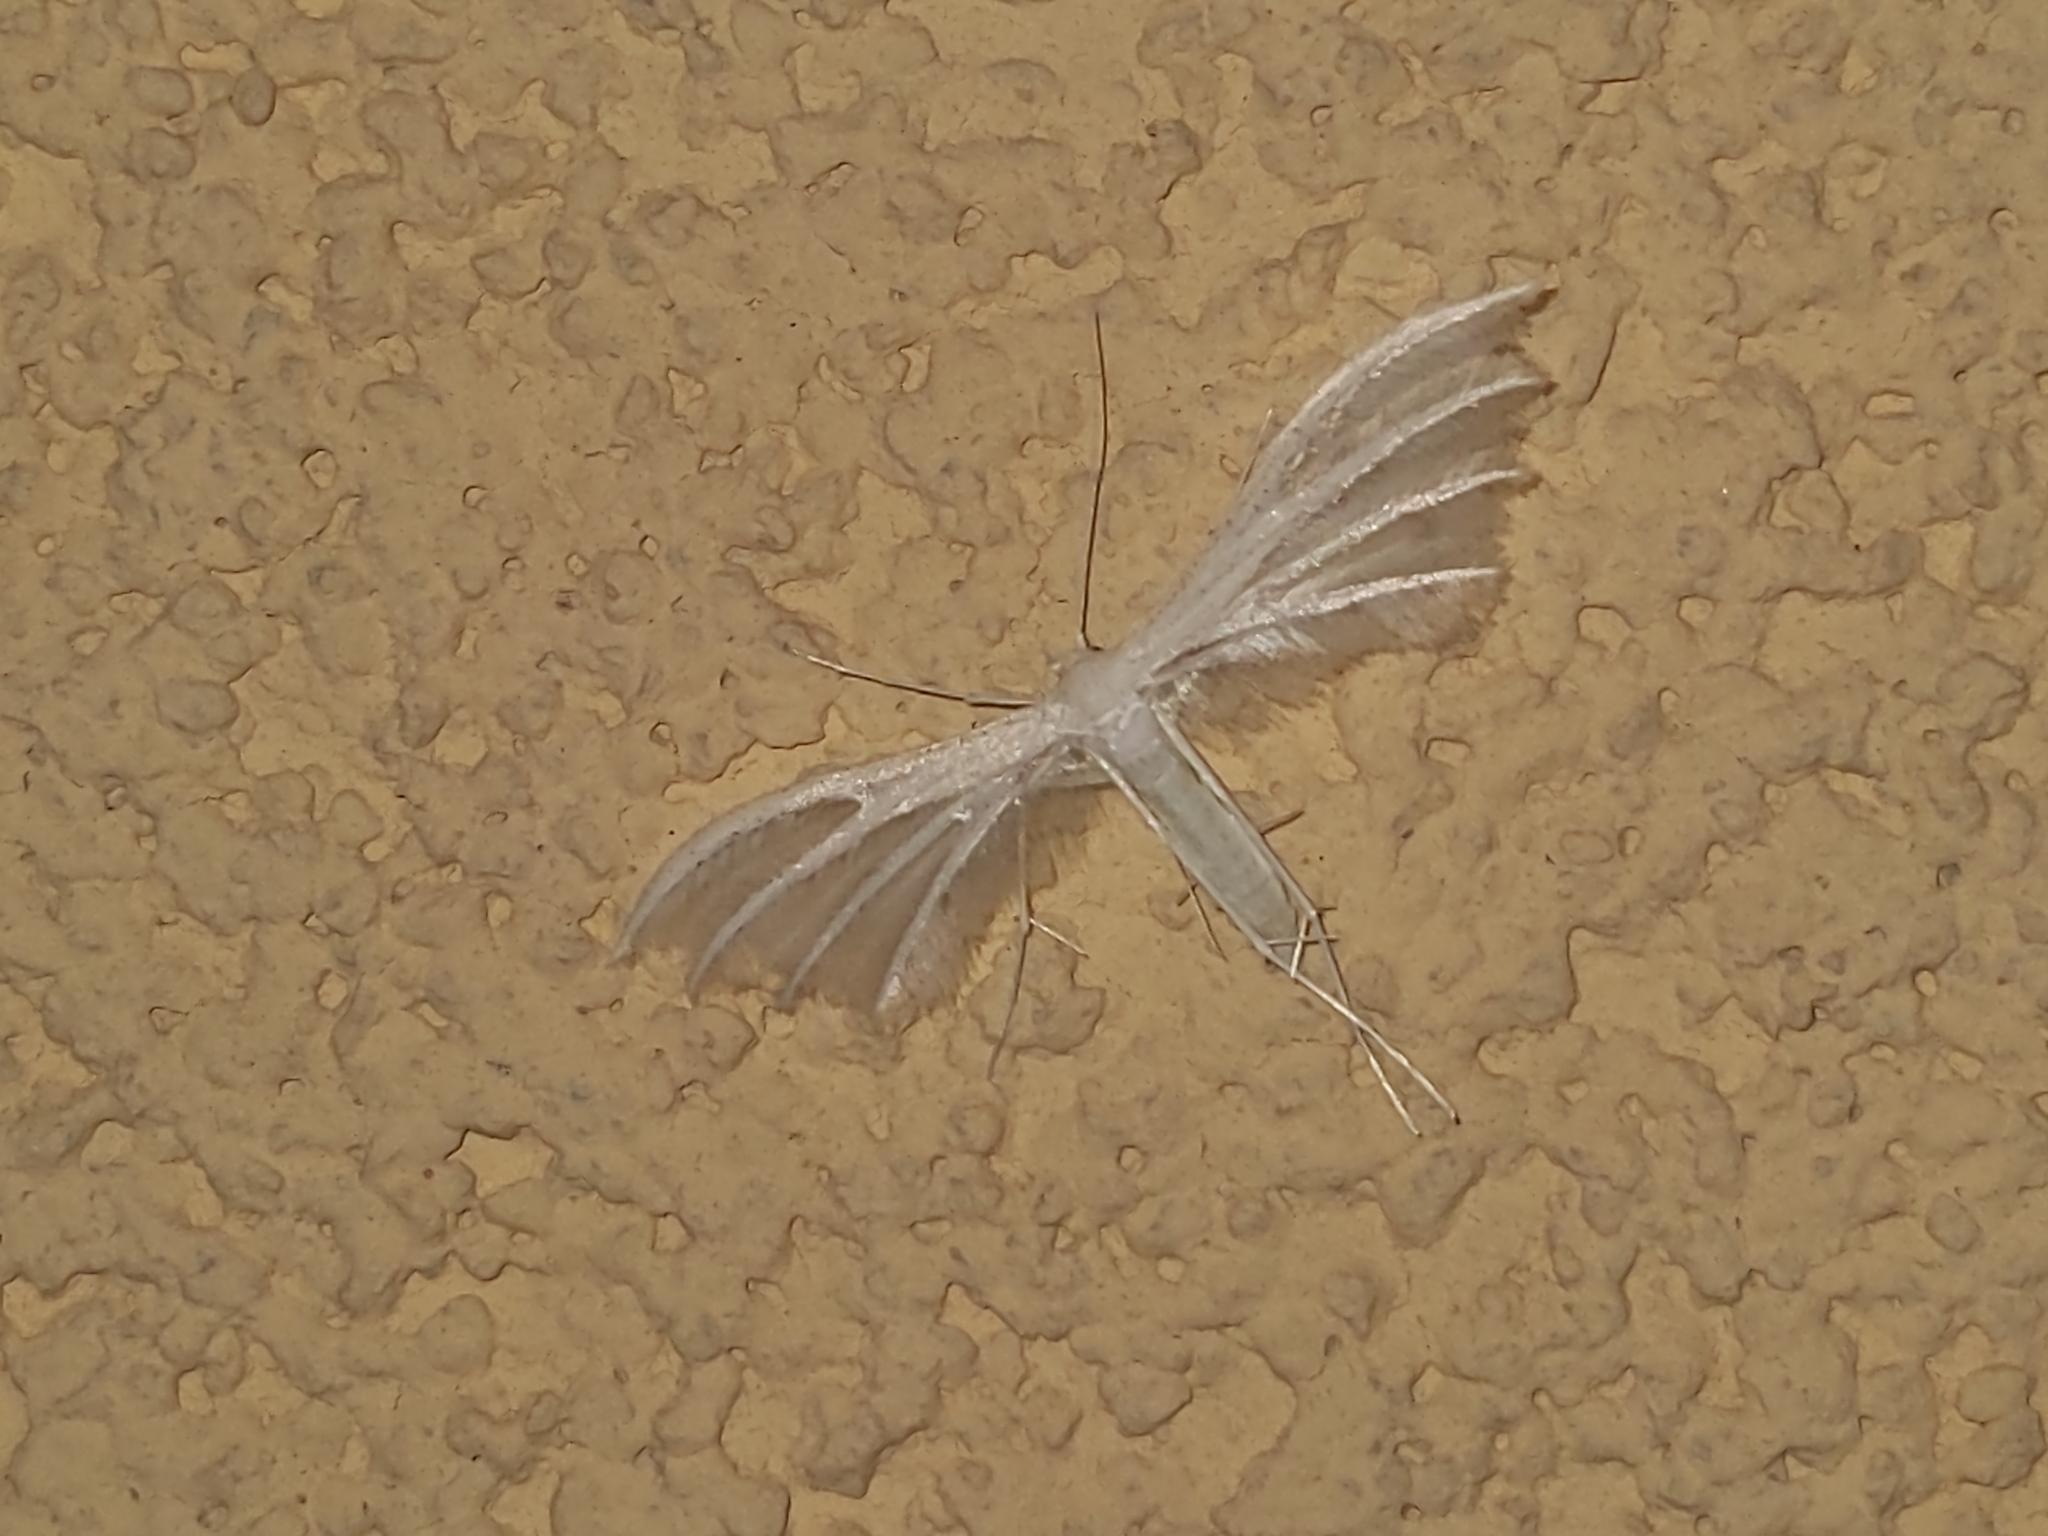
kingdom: Animalia
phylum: Arthropoda
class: Insecta
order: Lepidoptera
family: Pterophoridae
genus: Pterophorus
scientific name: Pterophorus pentadactyla
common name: White plume moth
